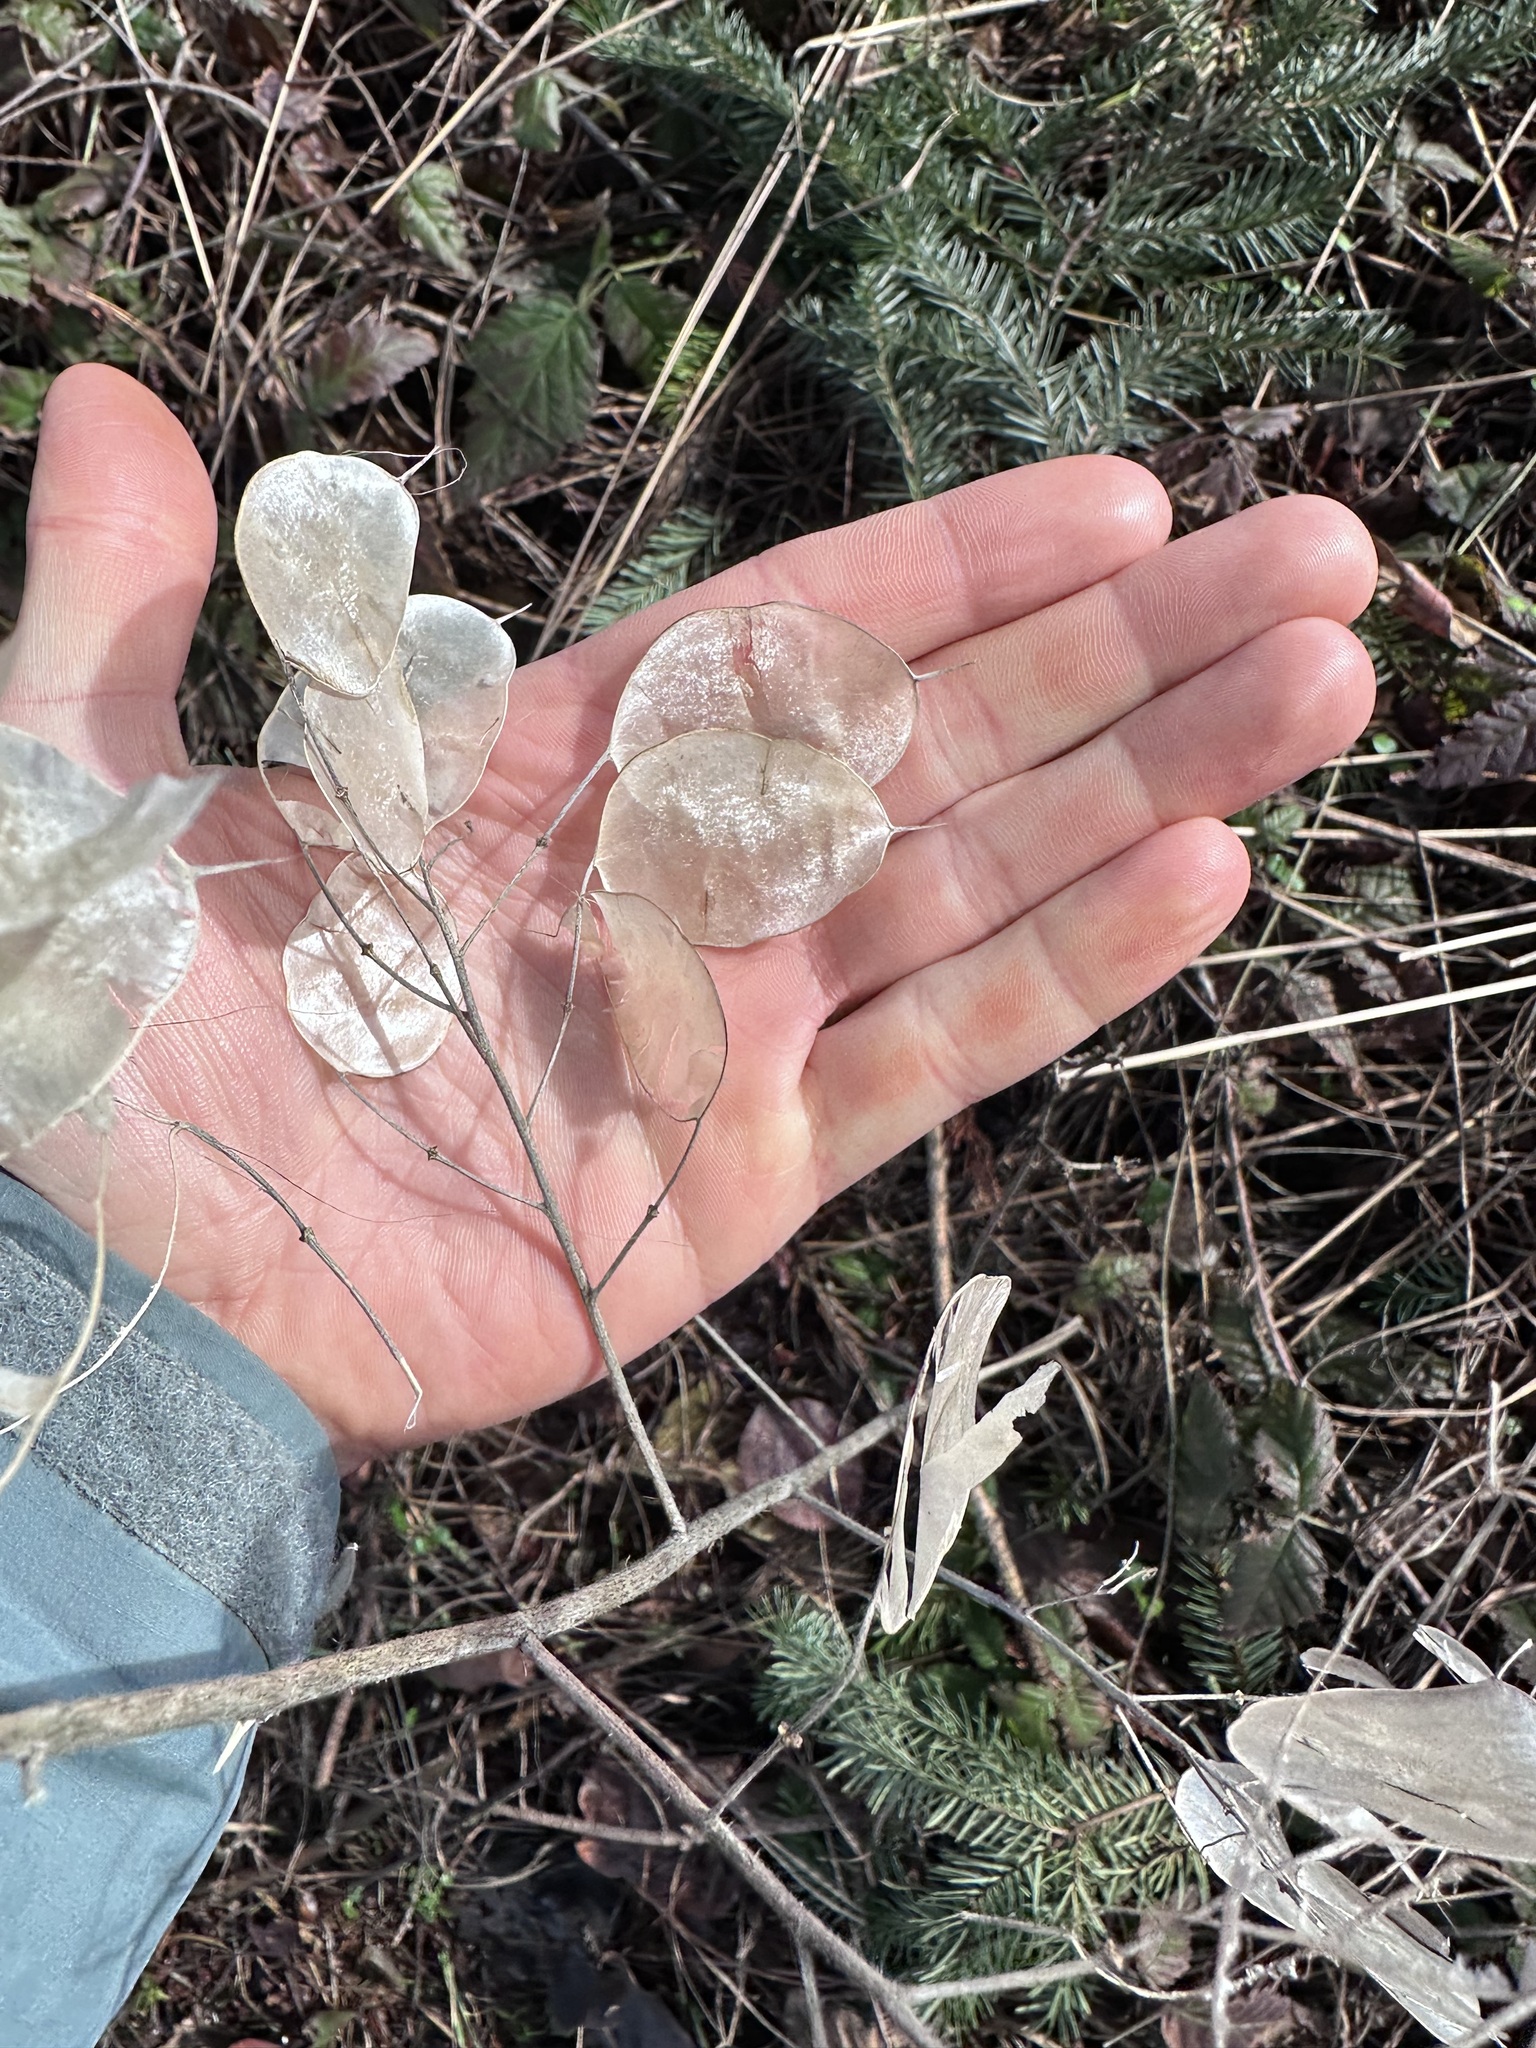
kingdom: Plantae
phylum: Tracheophyta
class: Magnoliopsida
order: Brassicales
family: Brassicaceae
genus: Lunaria
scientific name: Lunaria annua
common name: Honesty
